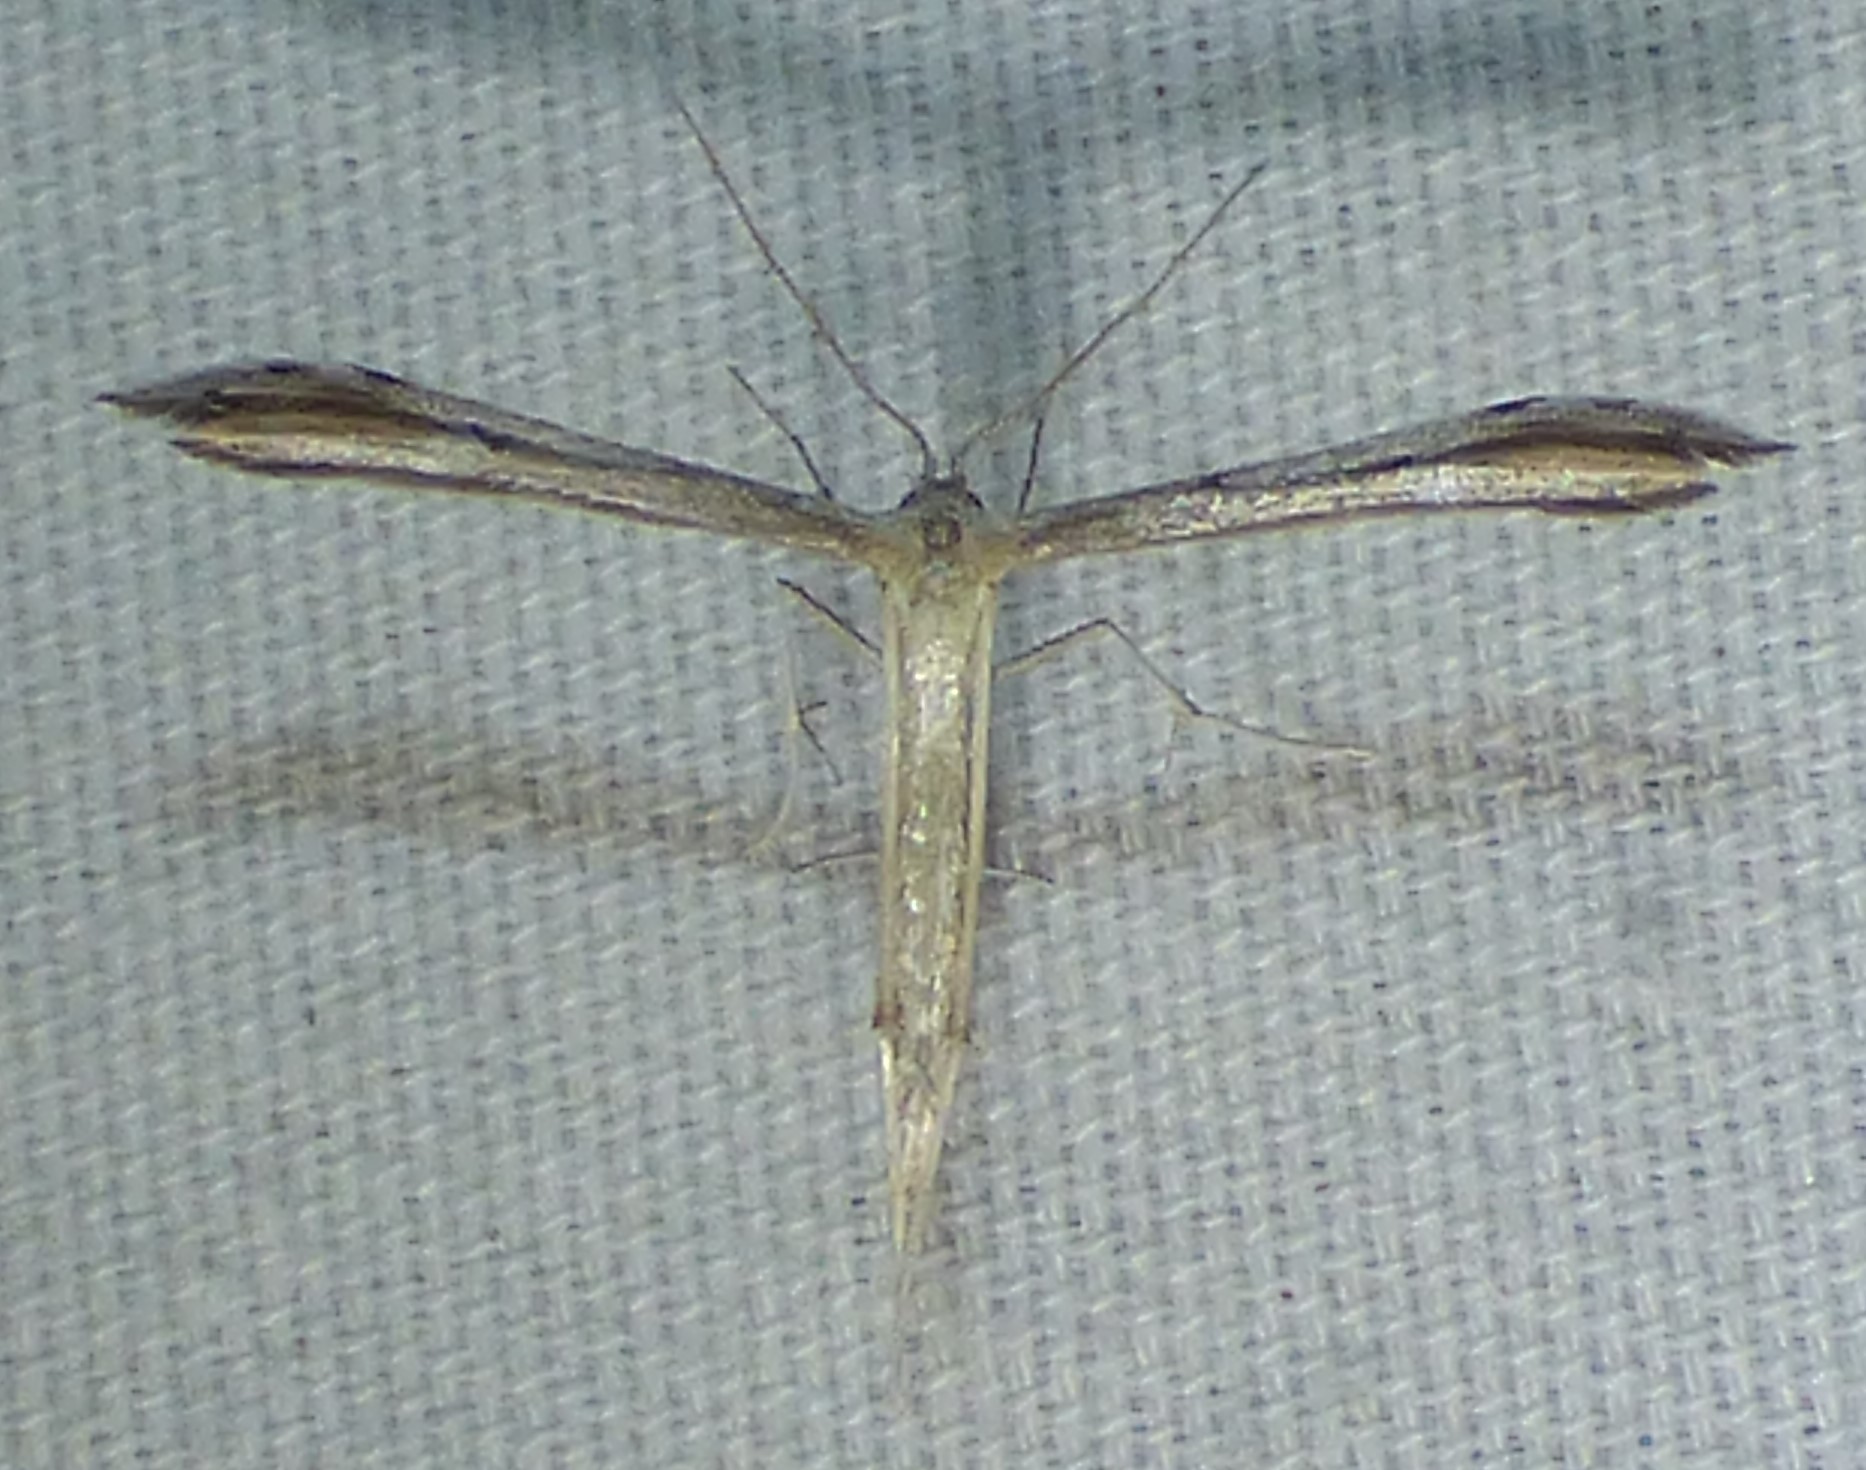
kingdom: Animalia
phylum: Arthropoda
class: Insecta
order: Lepidoptera
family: Pterophoridae
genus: Pselnophorus
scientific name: Pselnophorus belfragei
